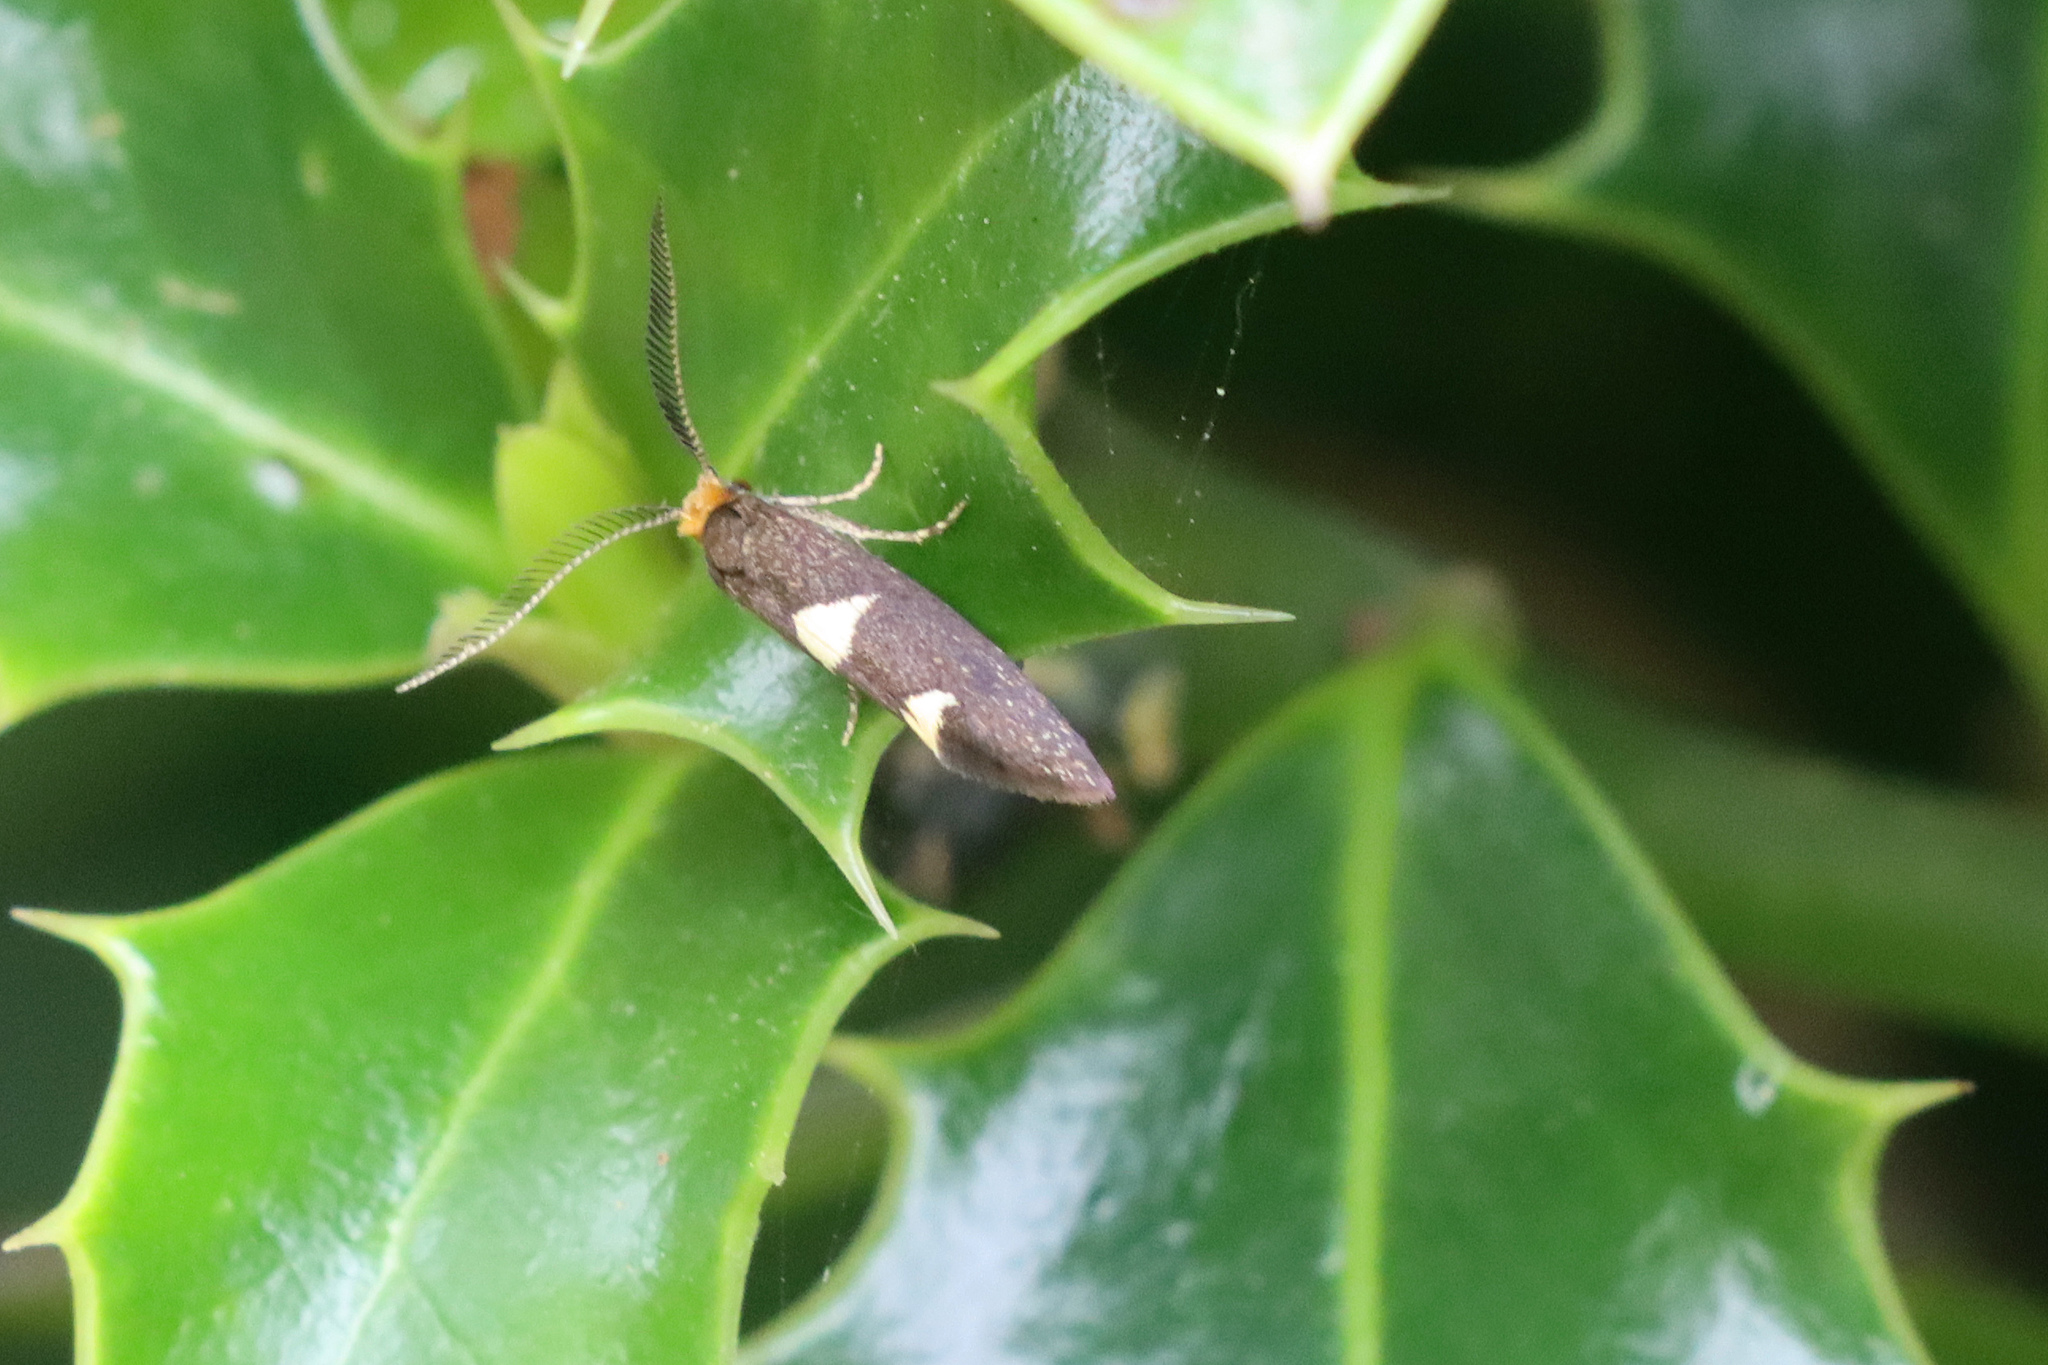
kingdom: Animalia
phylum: Arthropoda
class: Insecta
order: Lepidoptera
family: Incurvariidae
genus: Incurvaria
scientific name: Incurvaria masculella
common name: Feathered leaf-cutter
